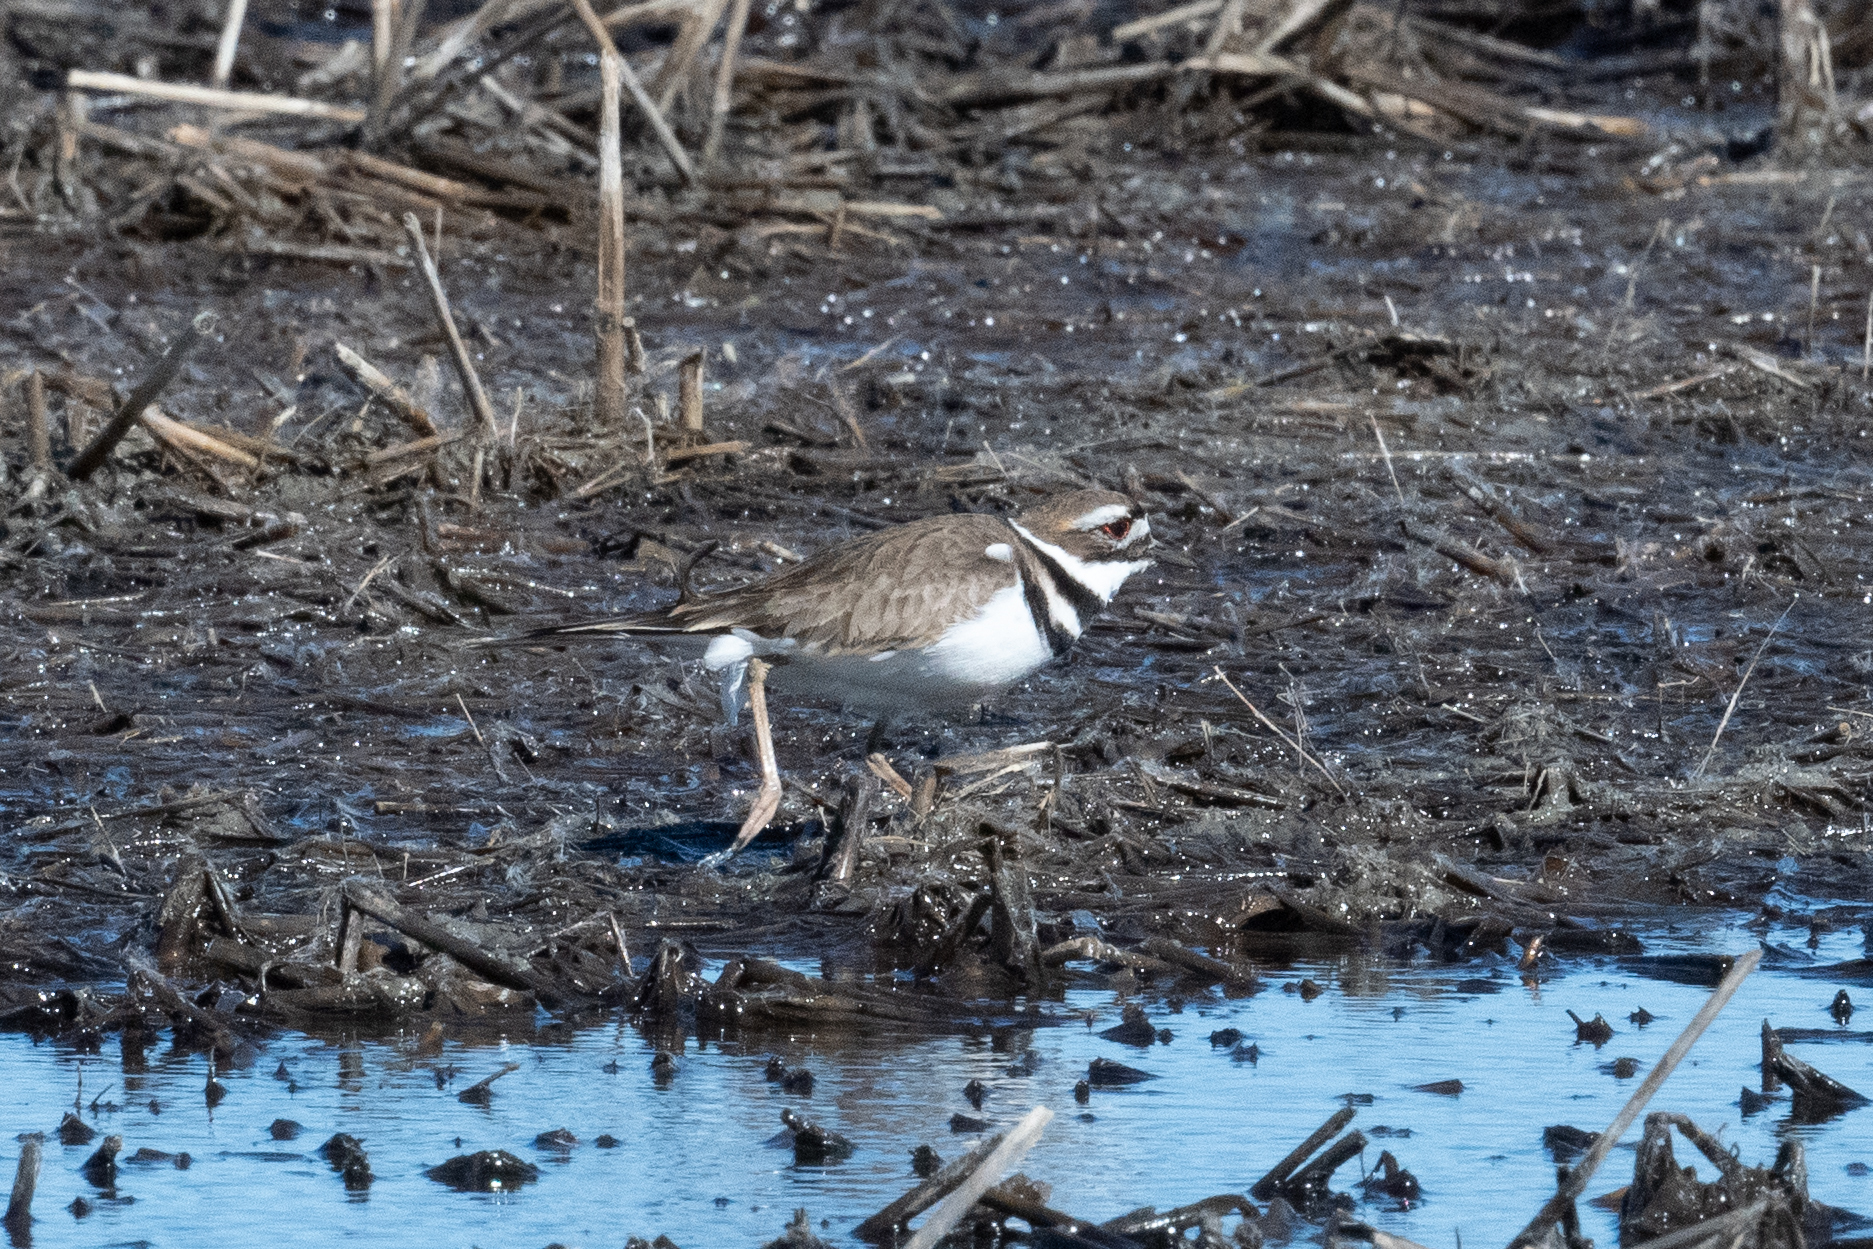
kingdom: Animalia
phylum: Chordata
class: Aves
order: Charadriiformes
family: Charadriidae
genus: Charadrius
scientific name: Charadrius vociferus
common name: Killdeer
